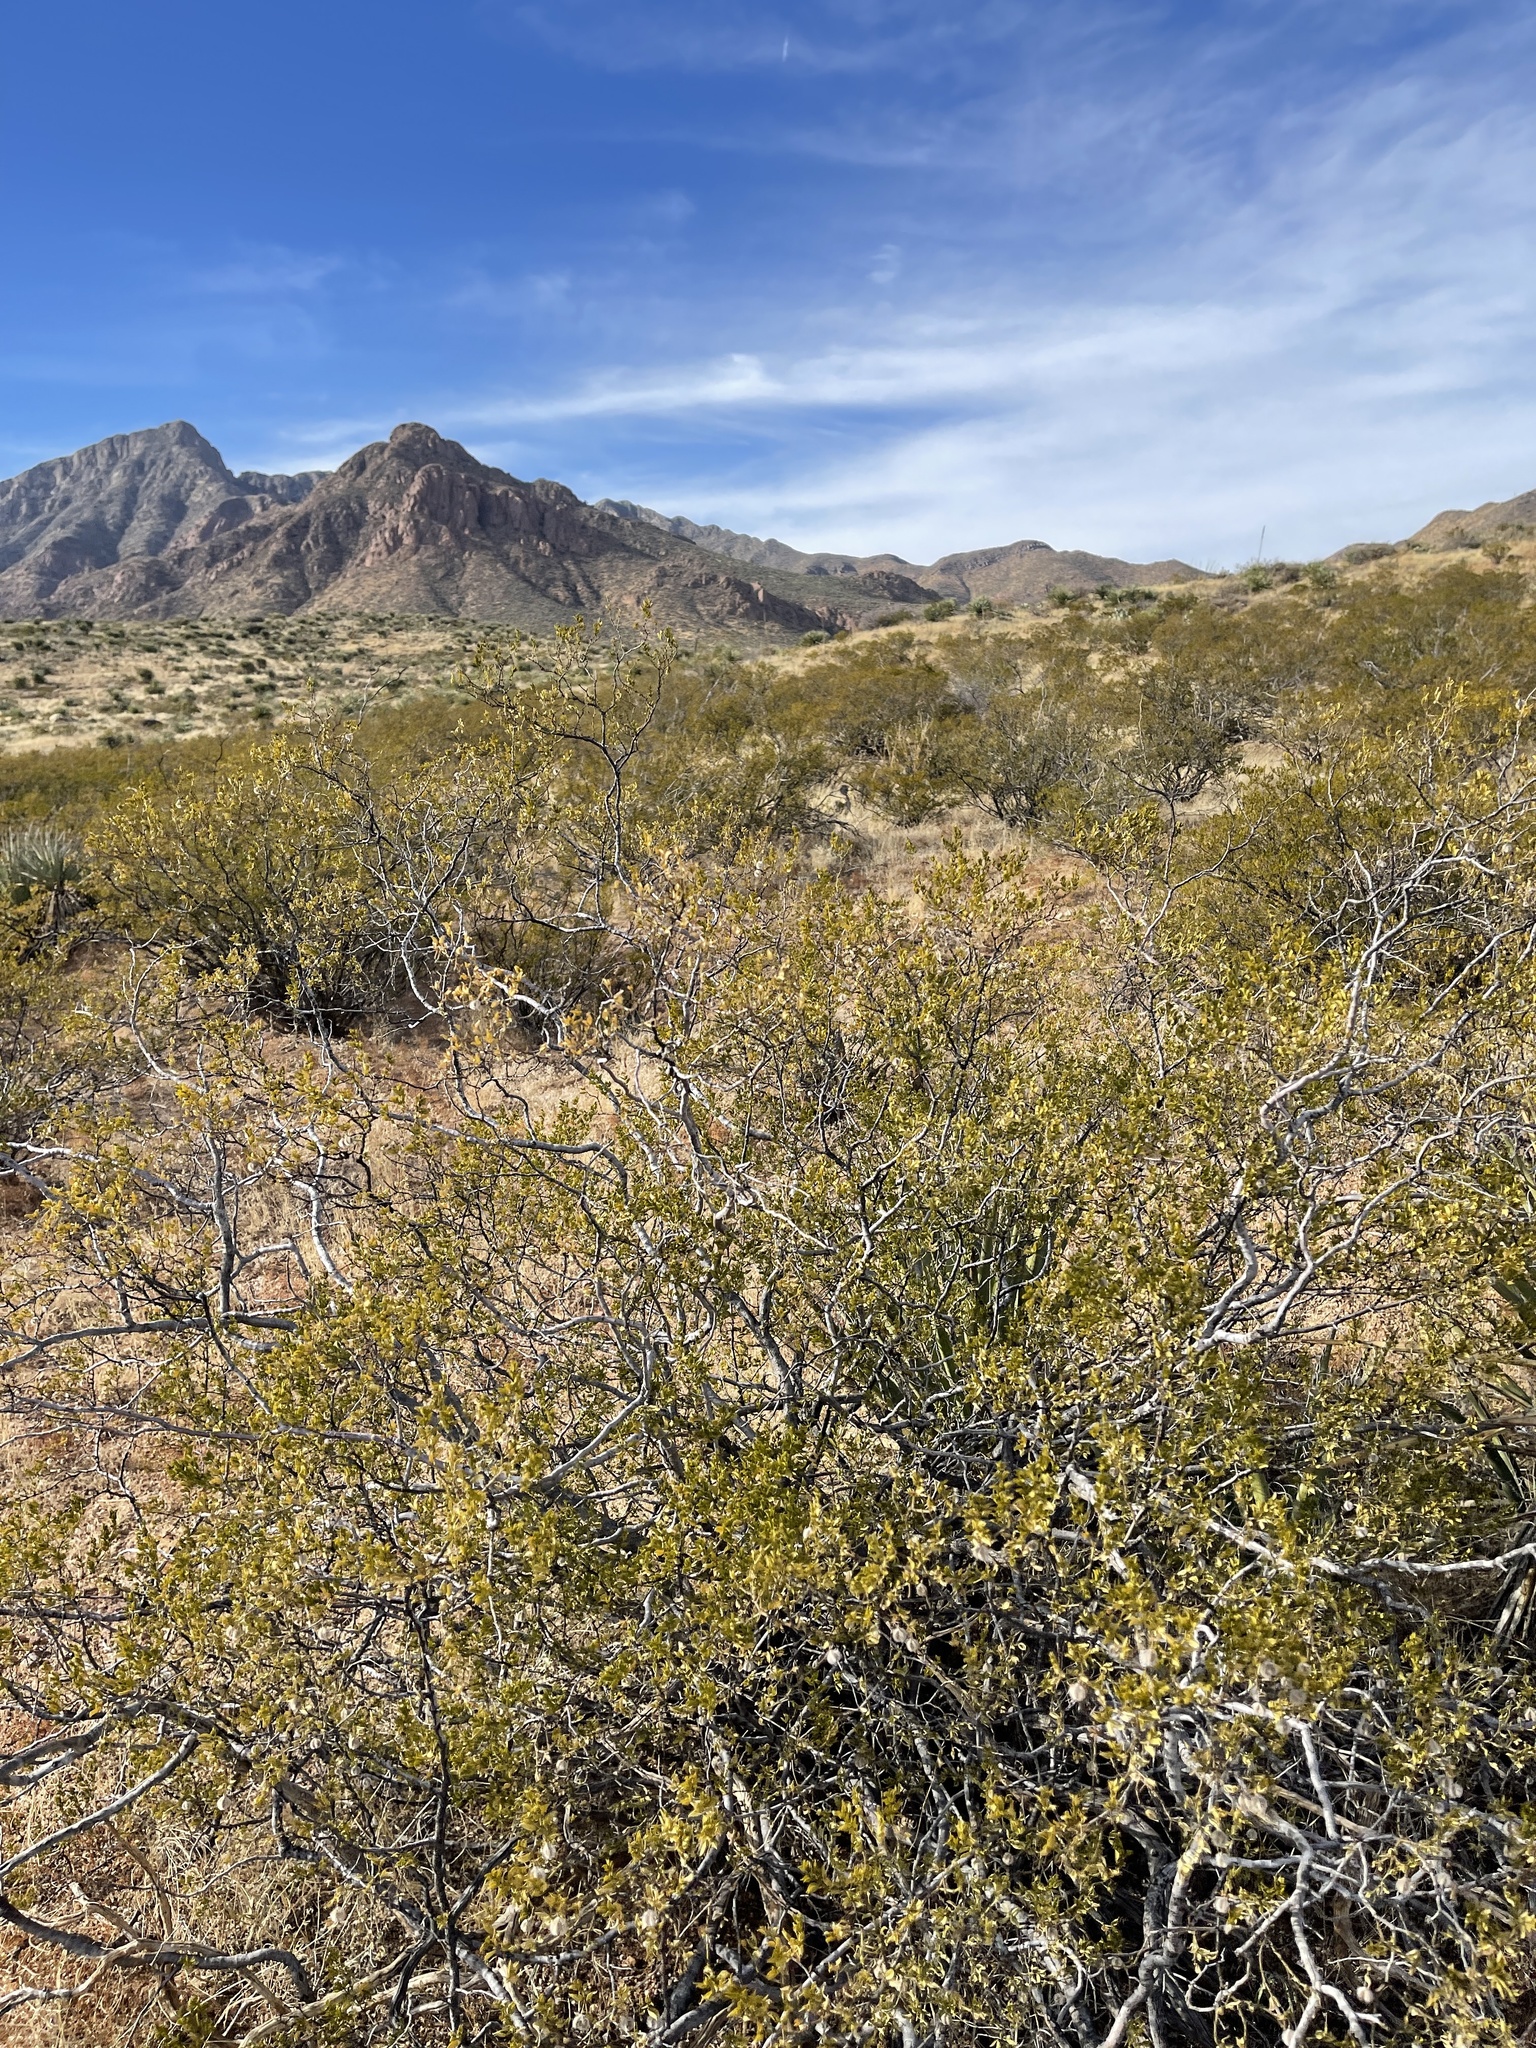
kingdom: Plantae
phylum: Tracheophyta
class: Magnoliopsida
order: Zygophyllales
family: Zygophyllaceae
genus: Larrea
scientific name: Larrea tridentata
